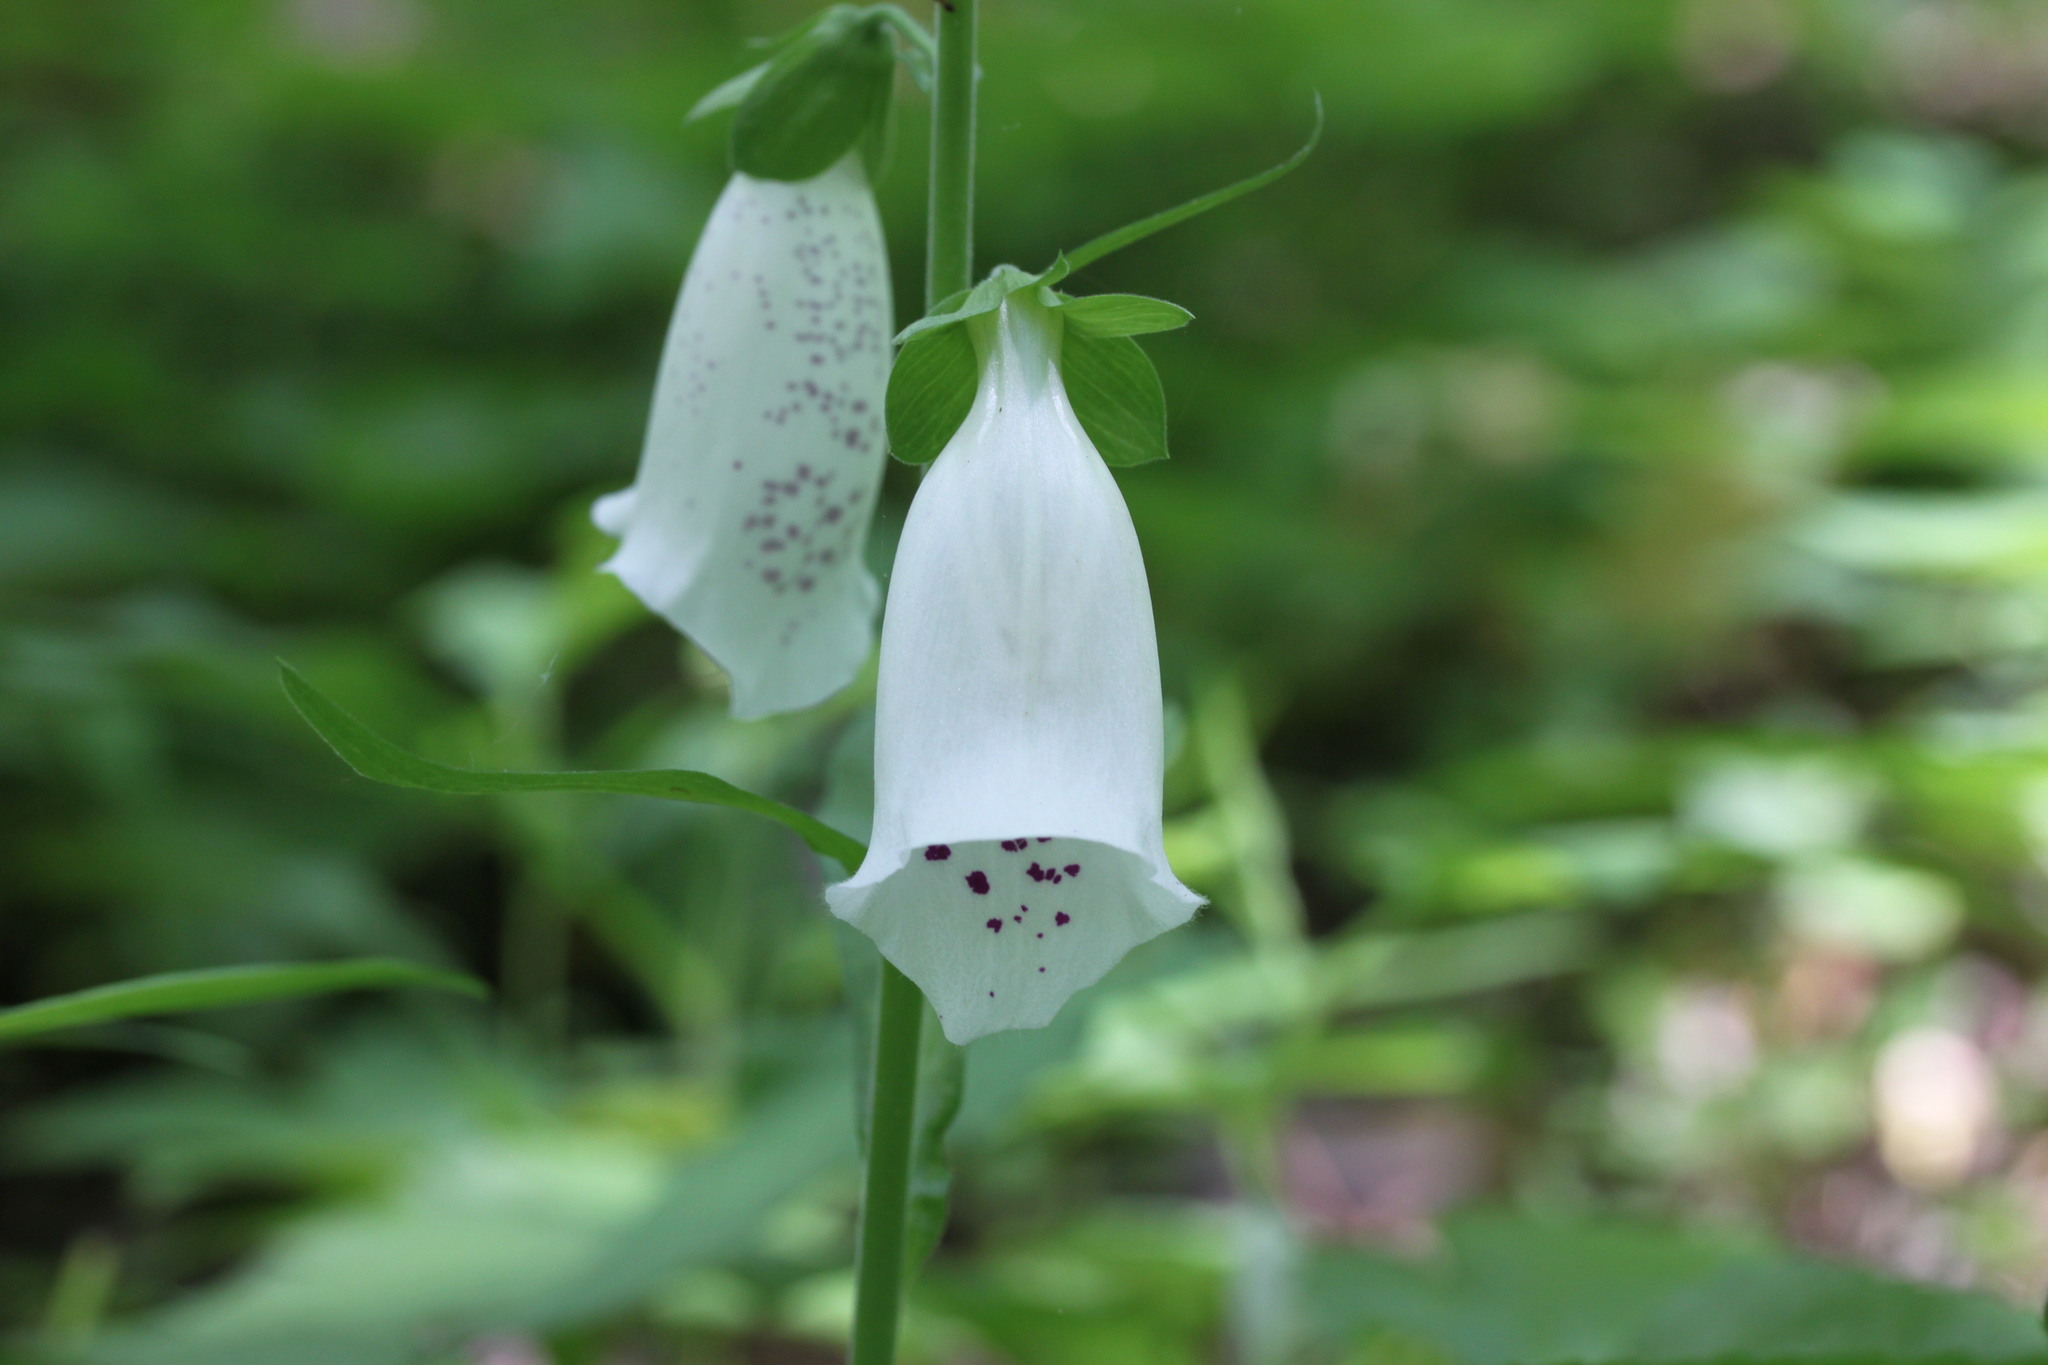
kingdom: Plantae
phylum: Tracheophyta
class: Magnoliopsida
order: Lamiales
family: Plantaginaceae
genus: Digitalis
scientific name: Digitalis purpurea
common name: Foxglove
